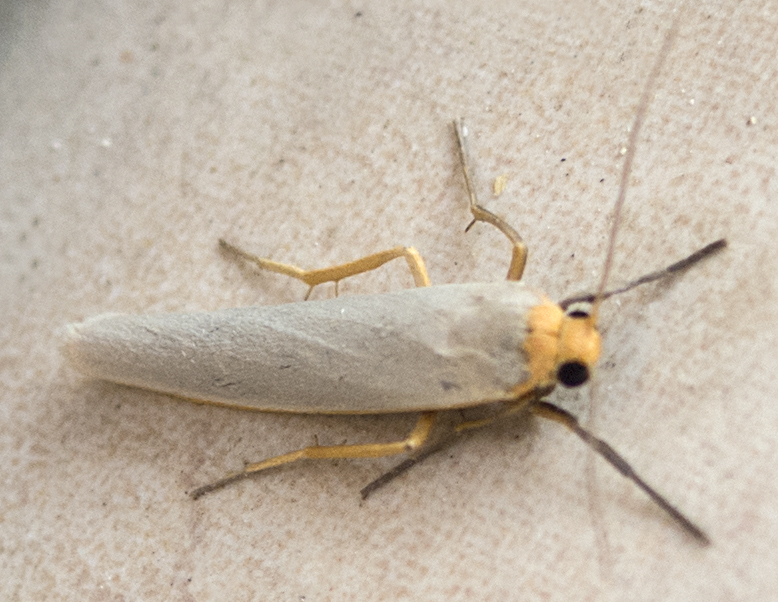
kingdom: Animalia
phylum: Arthropoda
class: Insecta
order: Lepidoptera
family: Erebidae
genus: Eilema
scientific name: Eilema caniola
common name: Hoary footman
